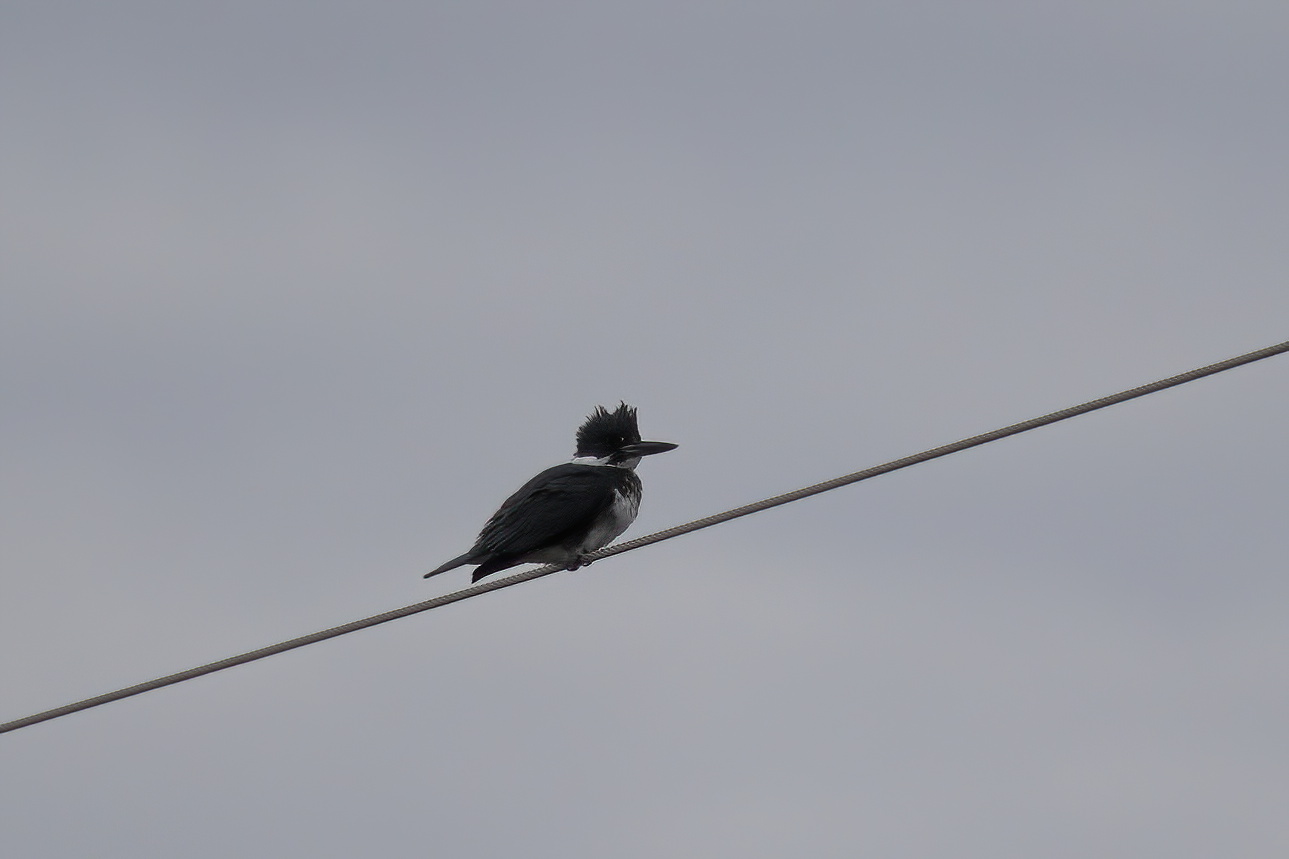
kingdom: Animalia
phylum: Chordata
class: Aves
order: Coraciiformes
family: Alcedinidae
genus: Megaceryle
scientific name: Megaceryle alcyon
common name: Belted kingfisher
